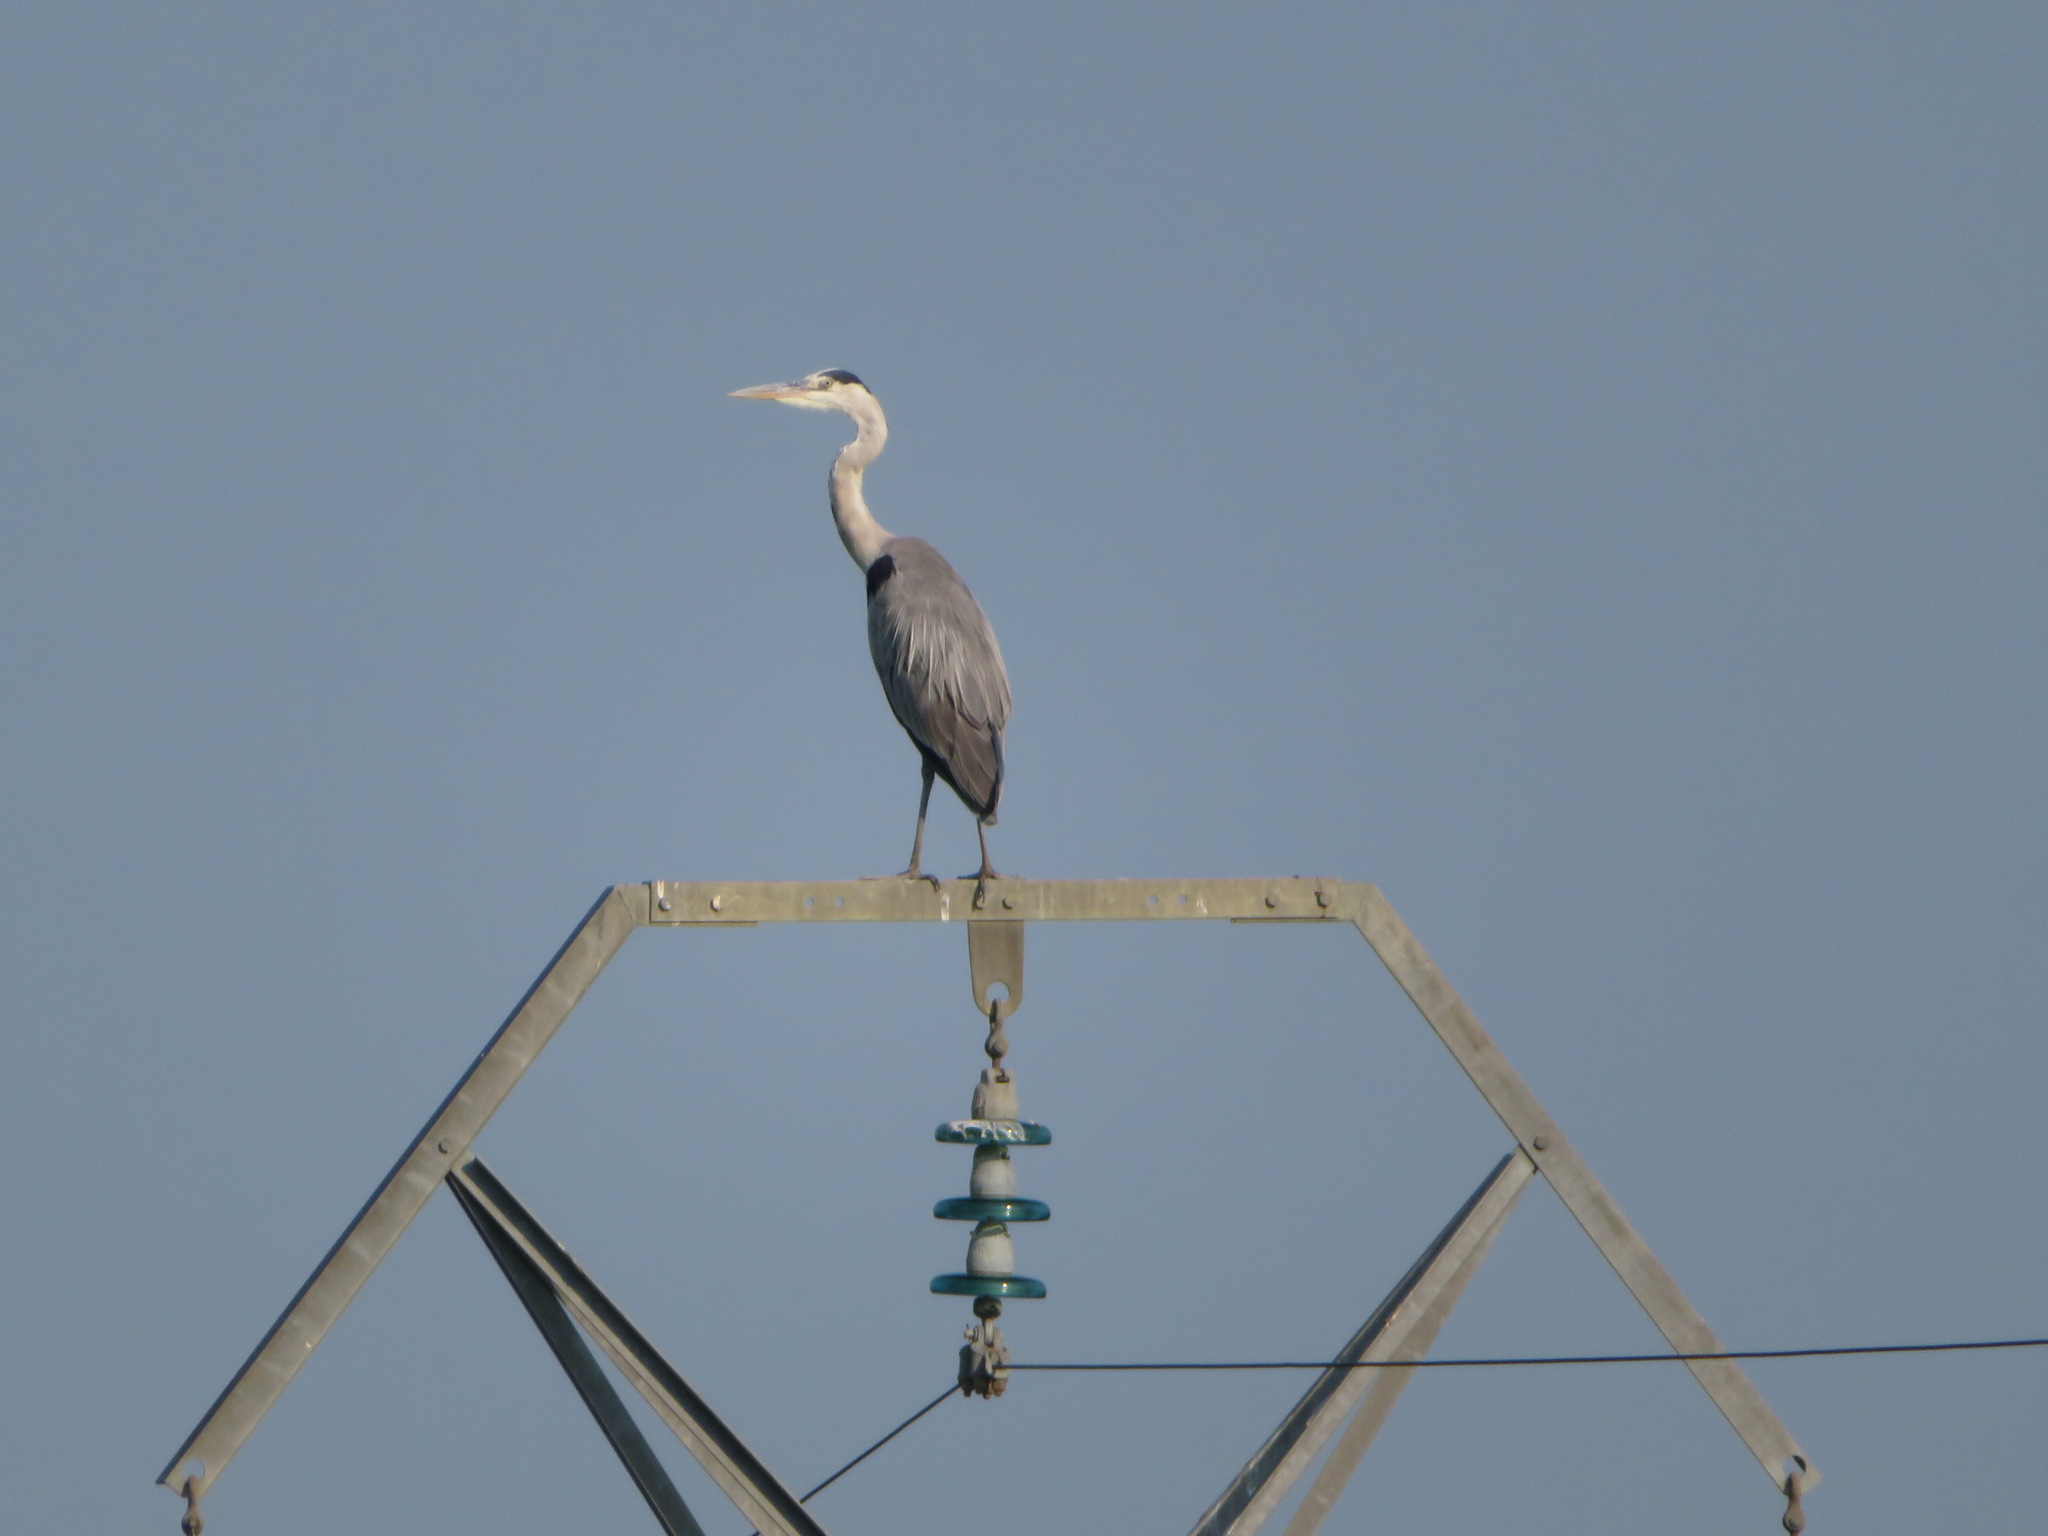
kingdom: Animalia
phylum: Chordata
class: Aves
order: Pelecaniformes
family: Ardeidae
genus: Ardea
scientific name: Ardea cinerea
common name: Grey heron
